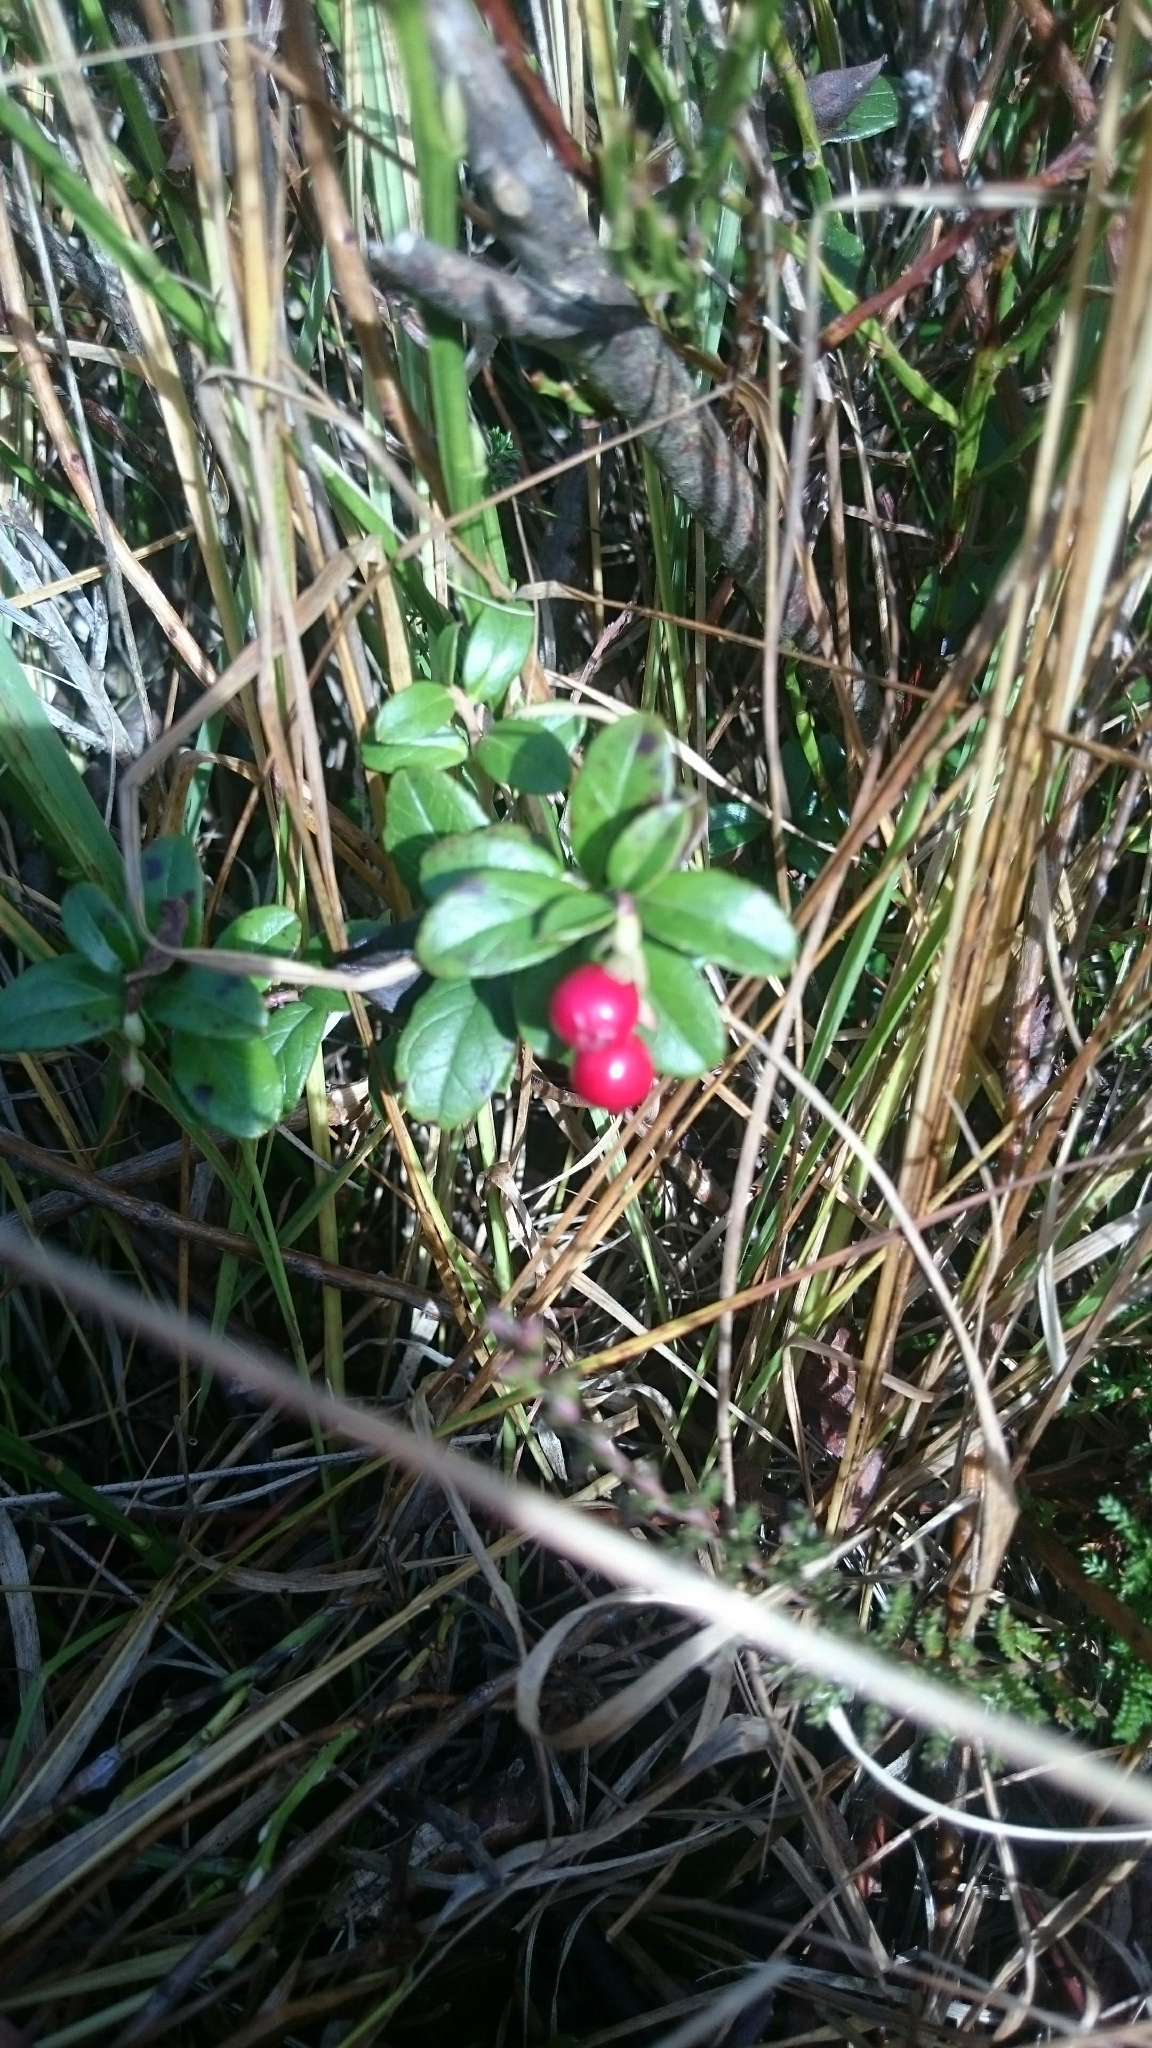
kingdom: Plantae
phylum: Tracheophyta
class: Magnoliopsida
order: Ericales
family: Ericaceae
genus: Vaccinium
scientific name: Vaccinium vitis-idaea
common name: Cowberry
